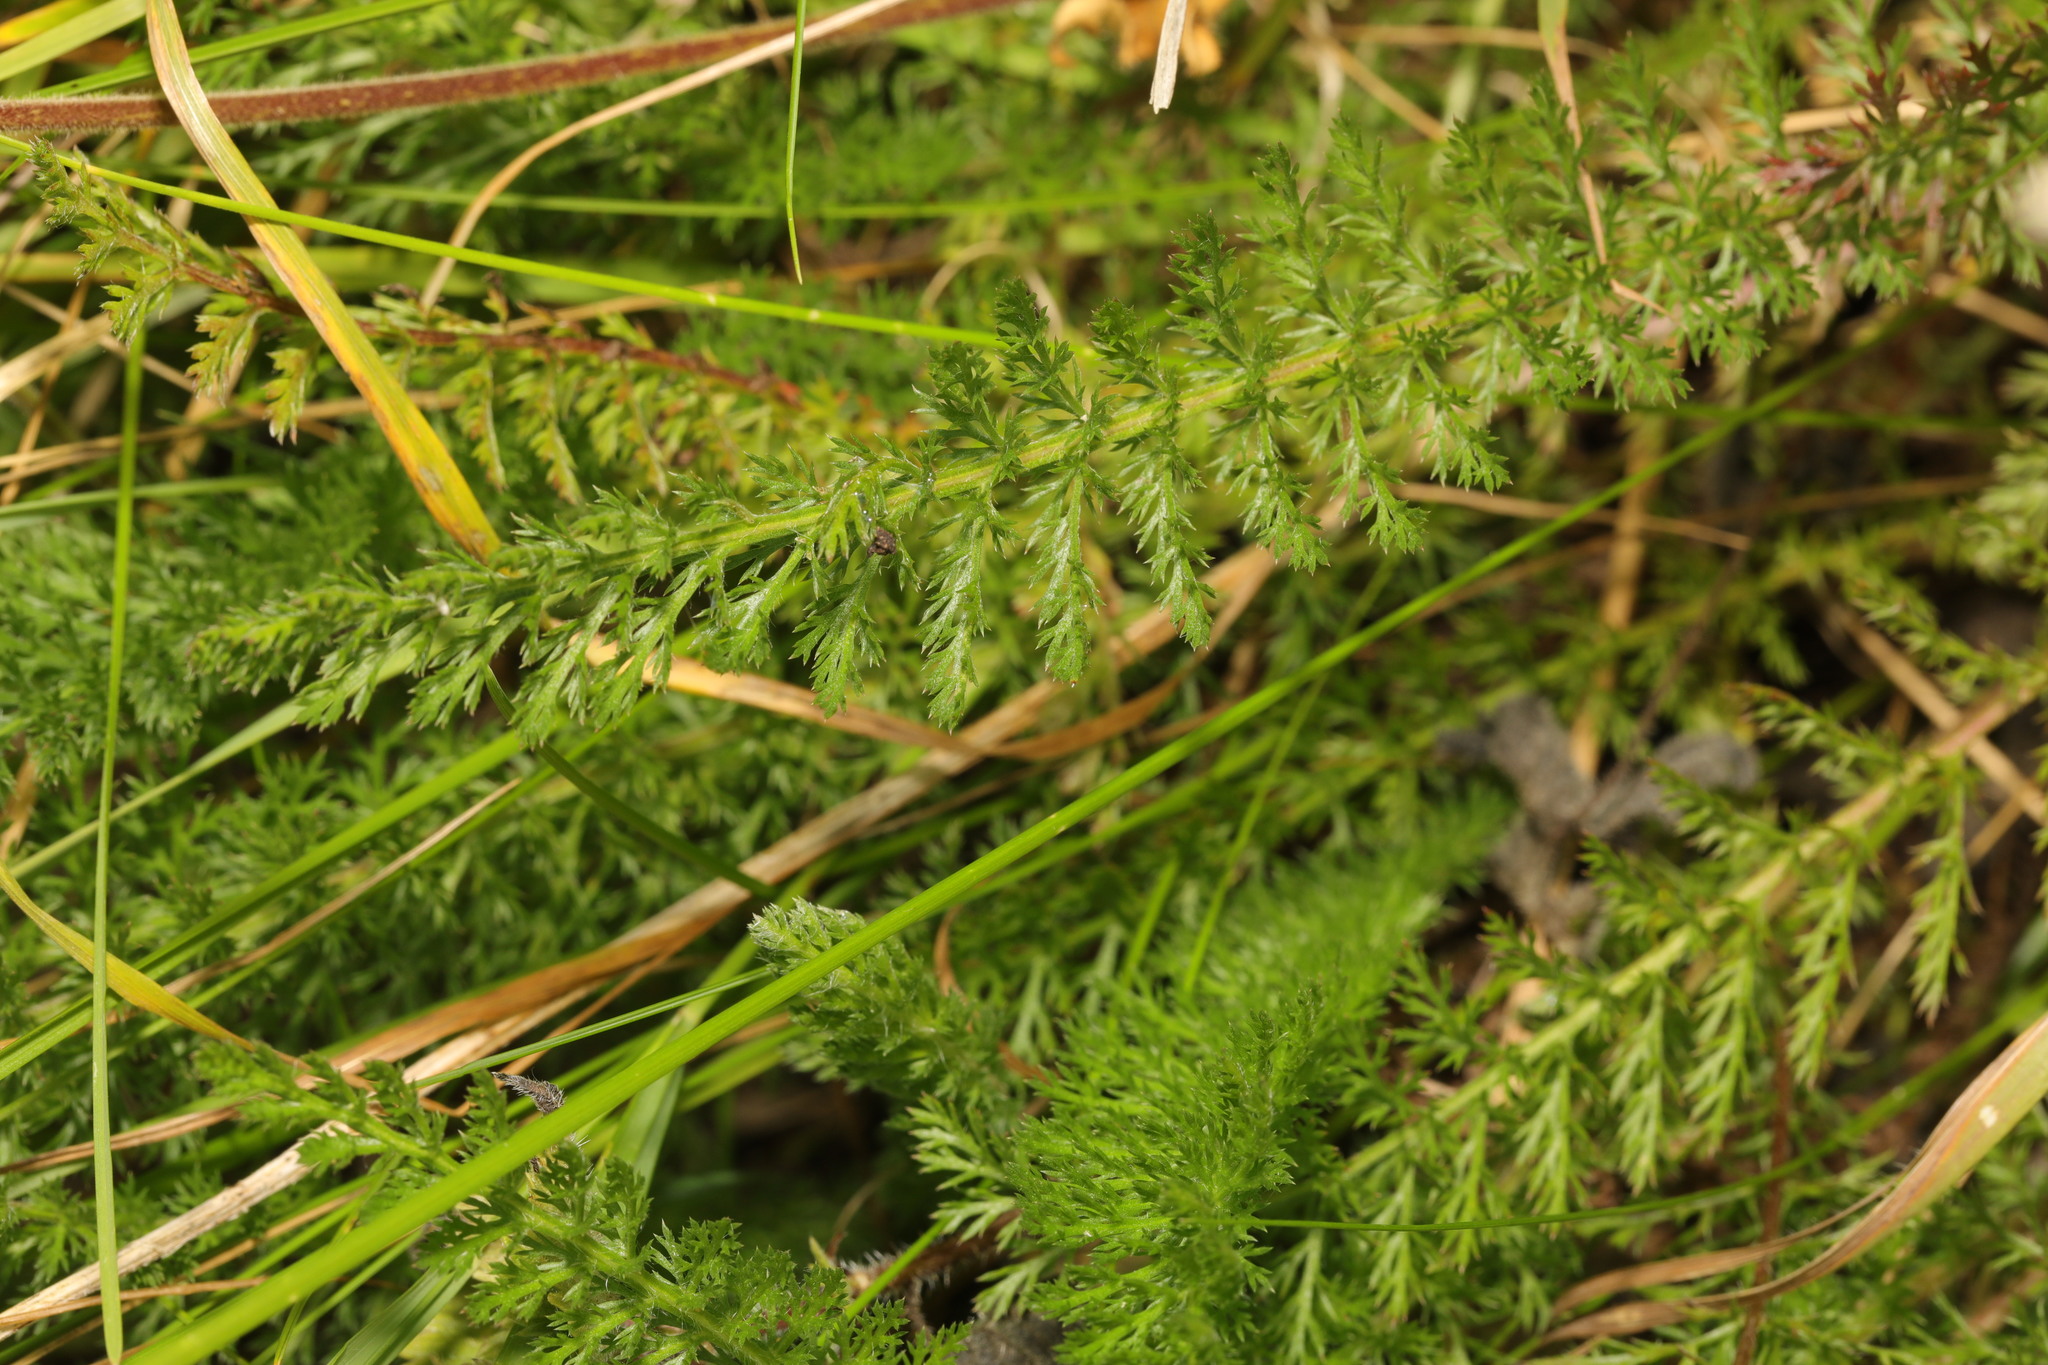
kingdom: Plantae
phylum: Tracheophyta
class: Magnoliopsida
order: Asterales
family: Asteraceae
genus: Achillea
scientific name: Achillea millefolium
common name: Yarrow
